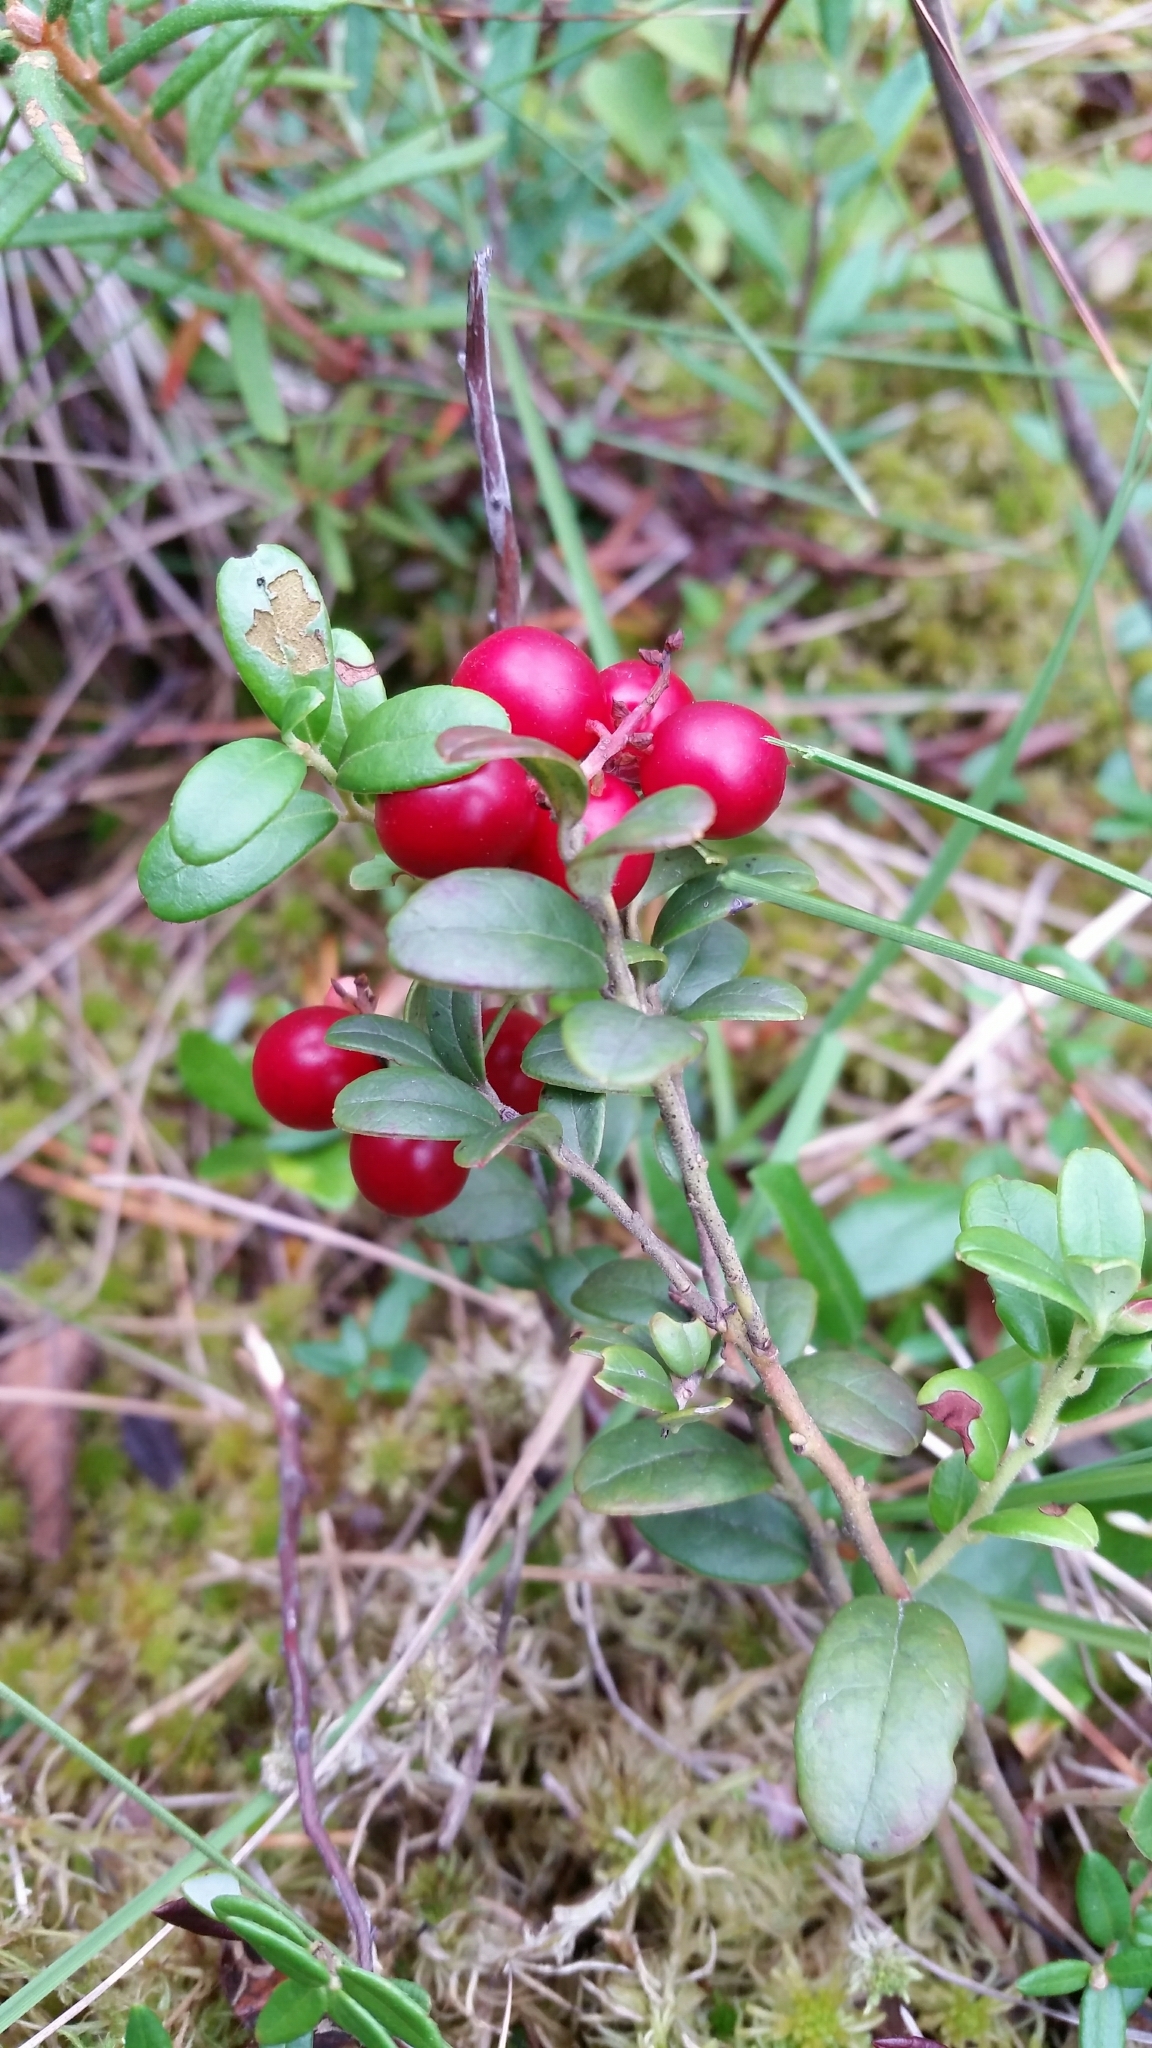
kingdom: Plantae
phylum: Tracheophyta
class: Magnoliopsida
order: Ericales
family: Ericaceae
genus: Vaccinium
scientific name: Vaccinium vitis-idaea
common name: Cowberry
